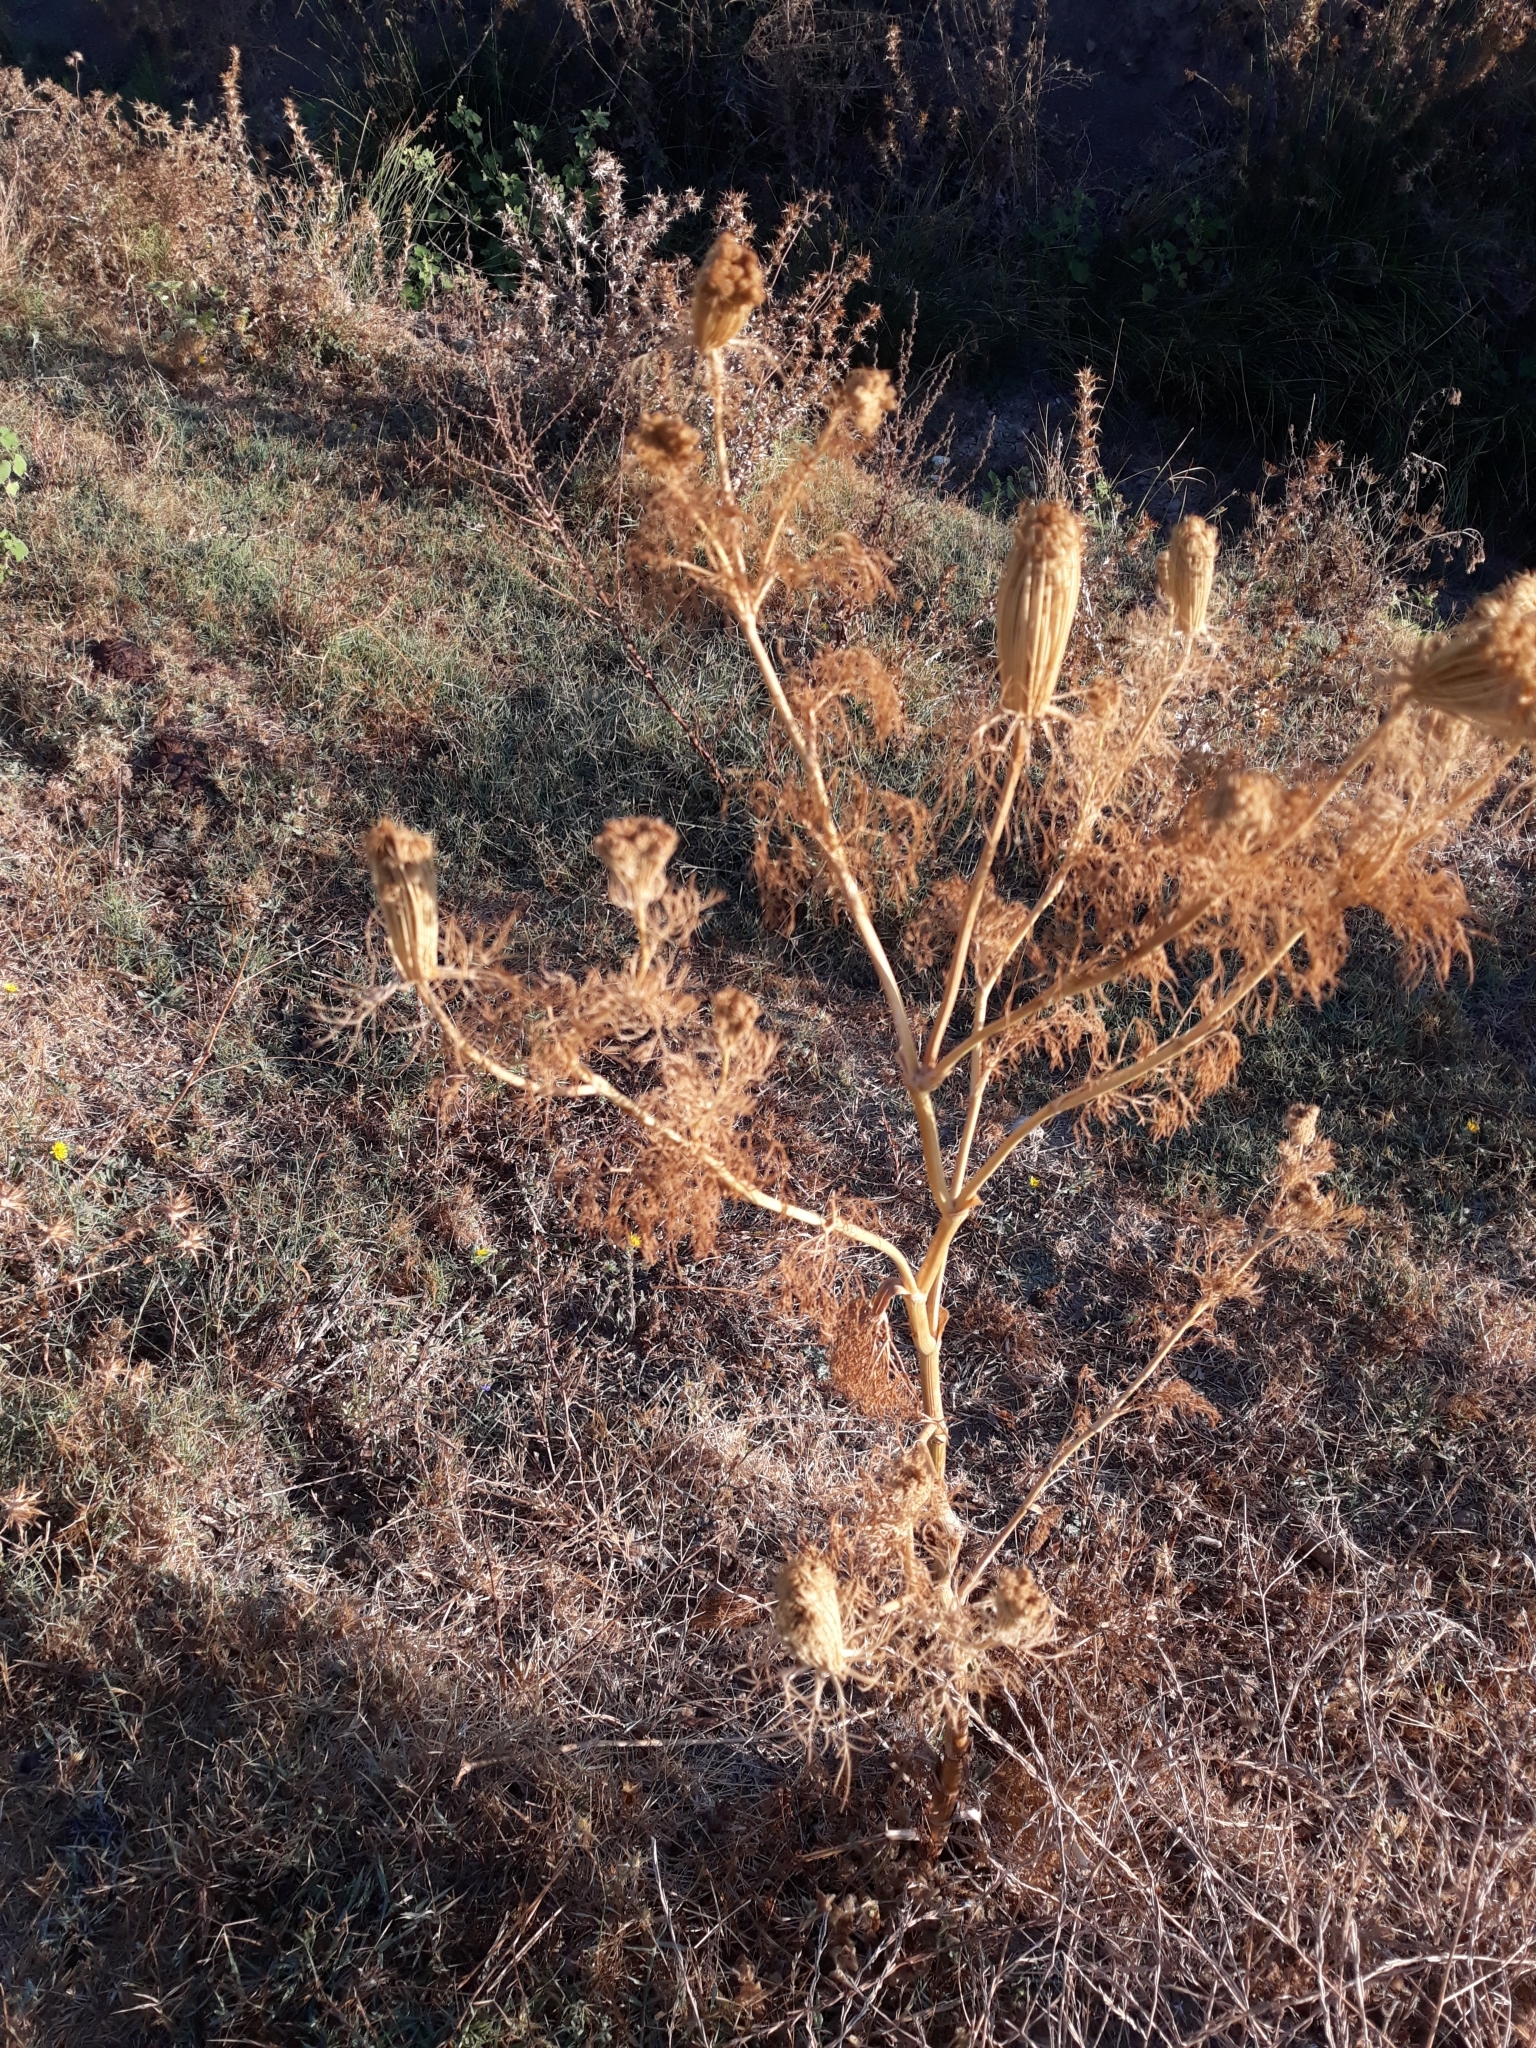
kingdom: Plantae
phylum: Tracheophyta
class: Magnoliopsida
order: Apiales
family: Apiaceae
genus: Visnaga
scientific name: Visnaga daucoides
